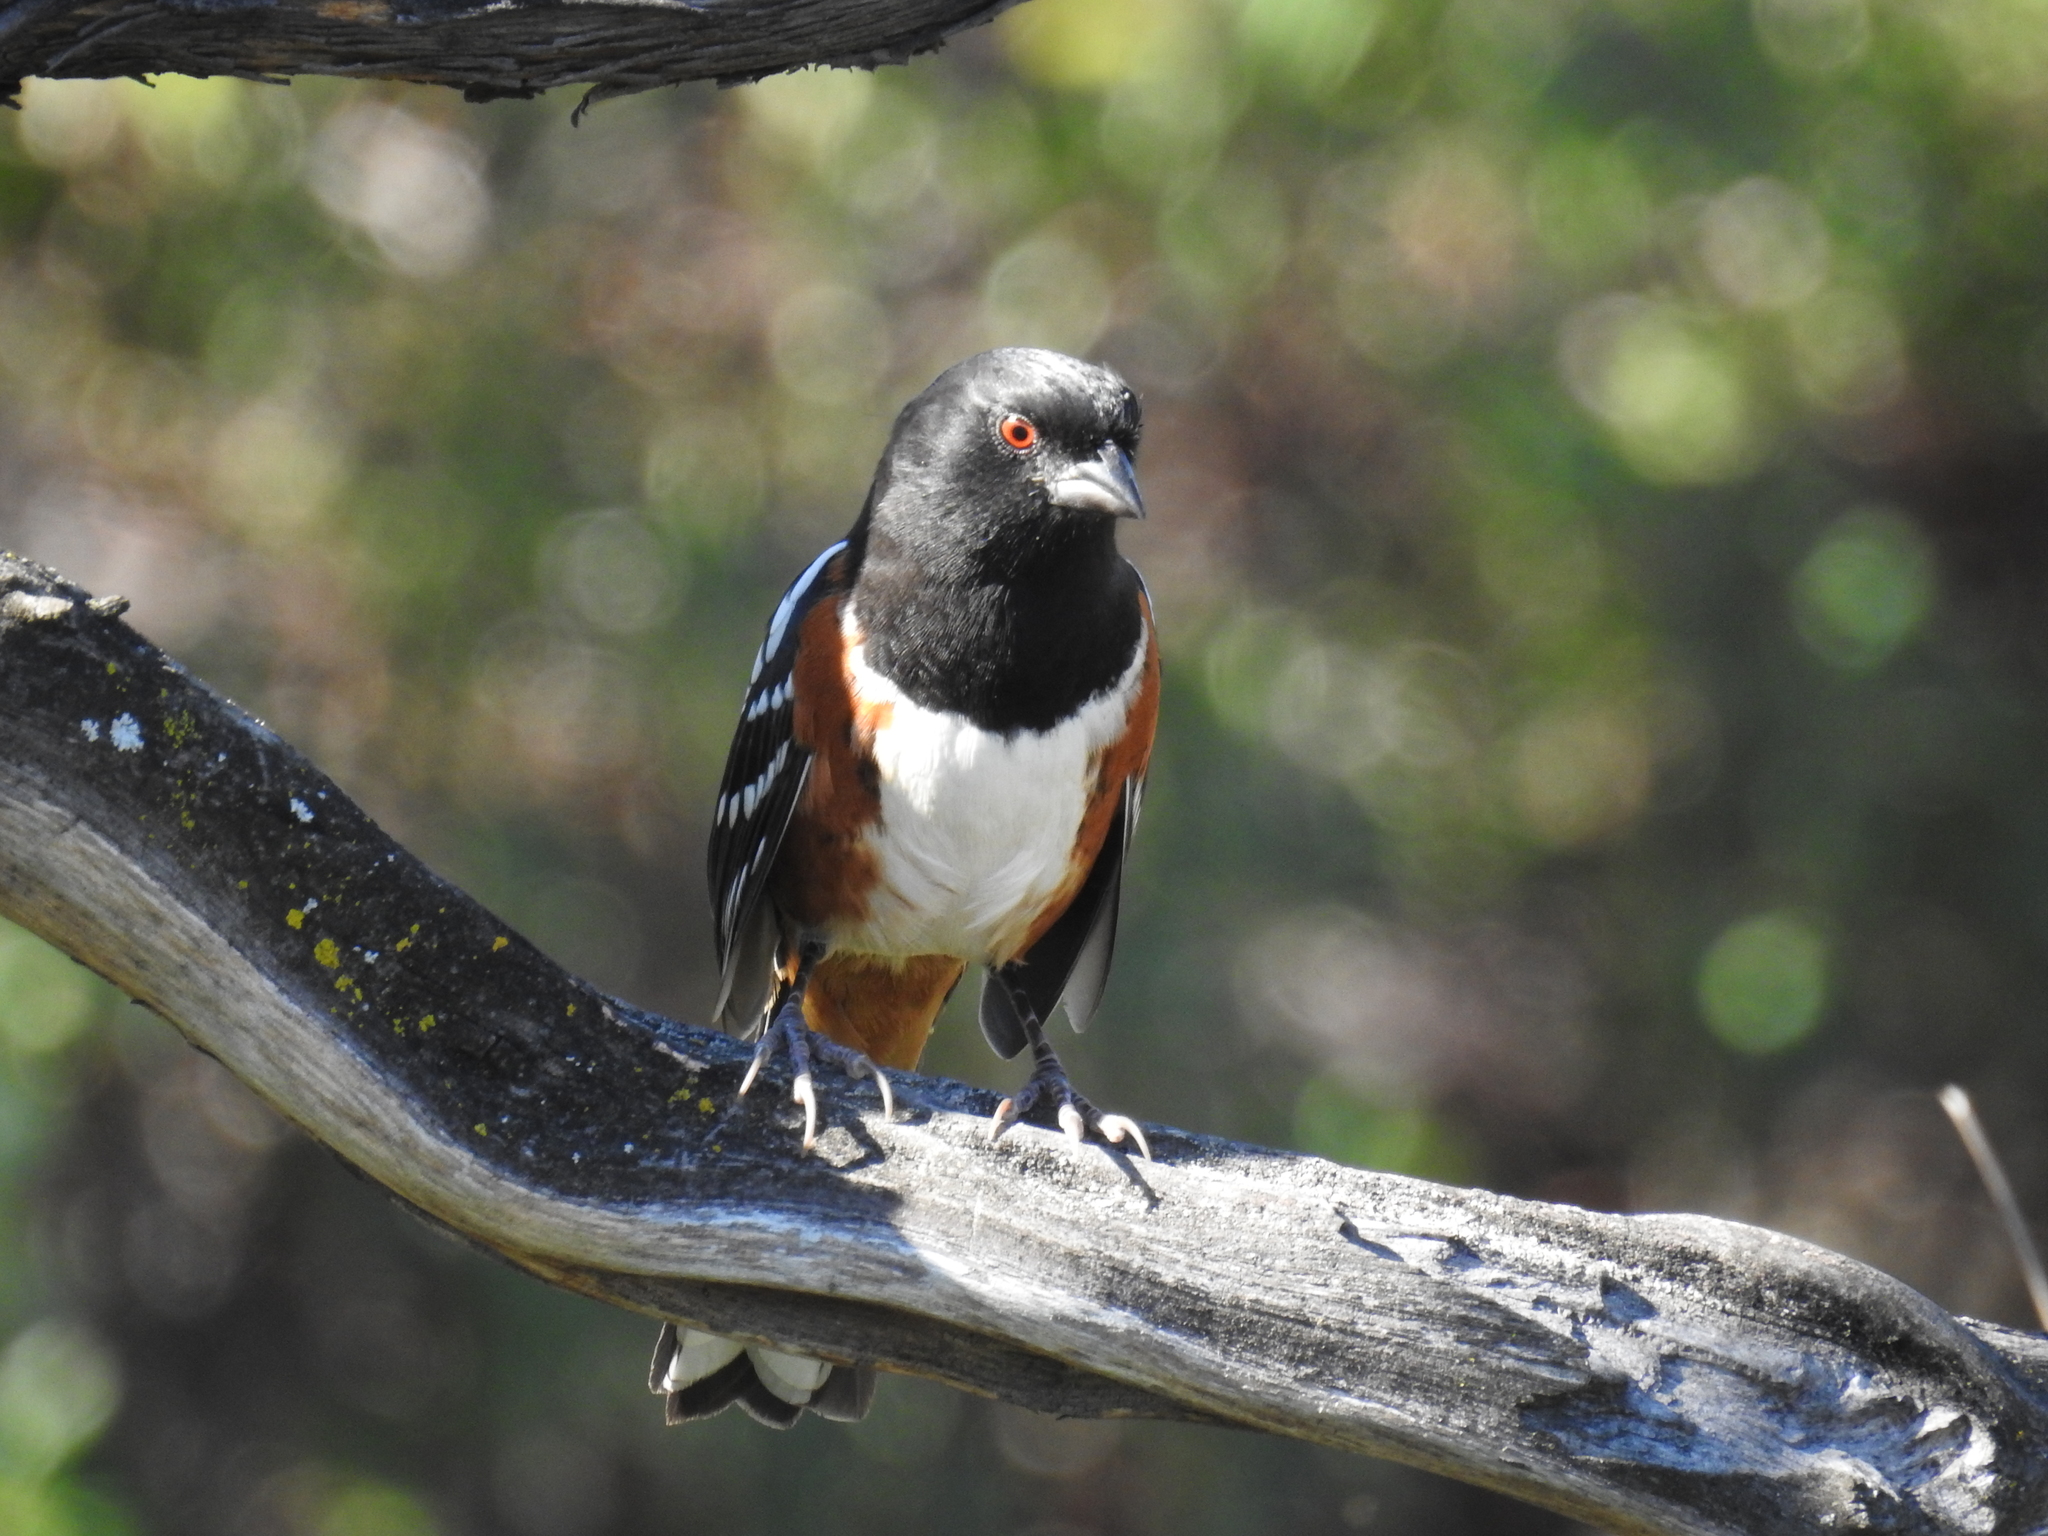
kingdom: Animalia
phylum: Chordata
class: Aves
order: Passeriformes
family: Passerellidae
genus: Pipilo
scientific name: Pipilo maculatus
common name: Spotted towhee
